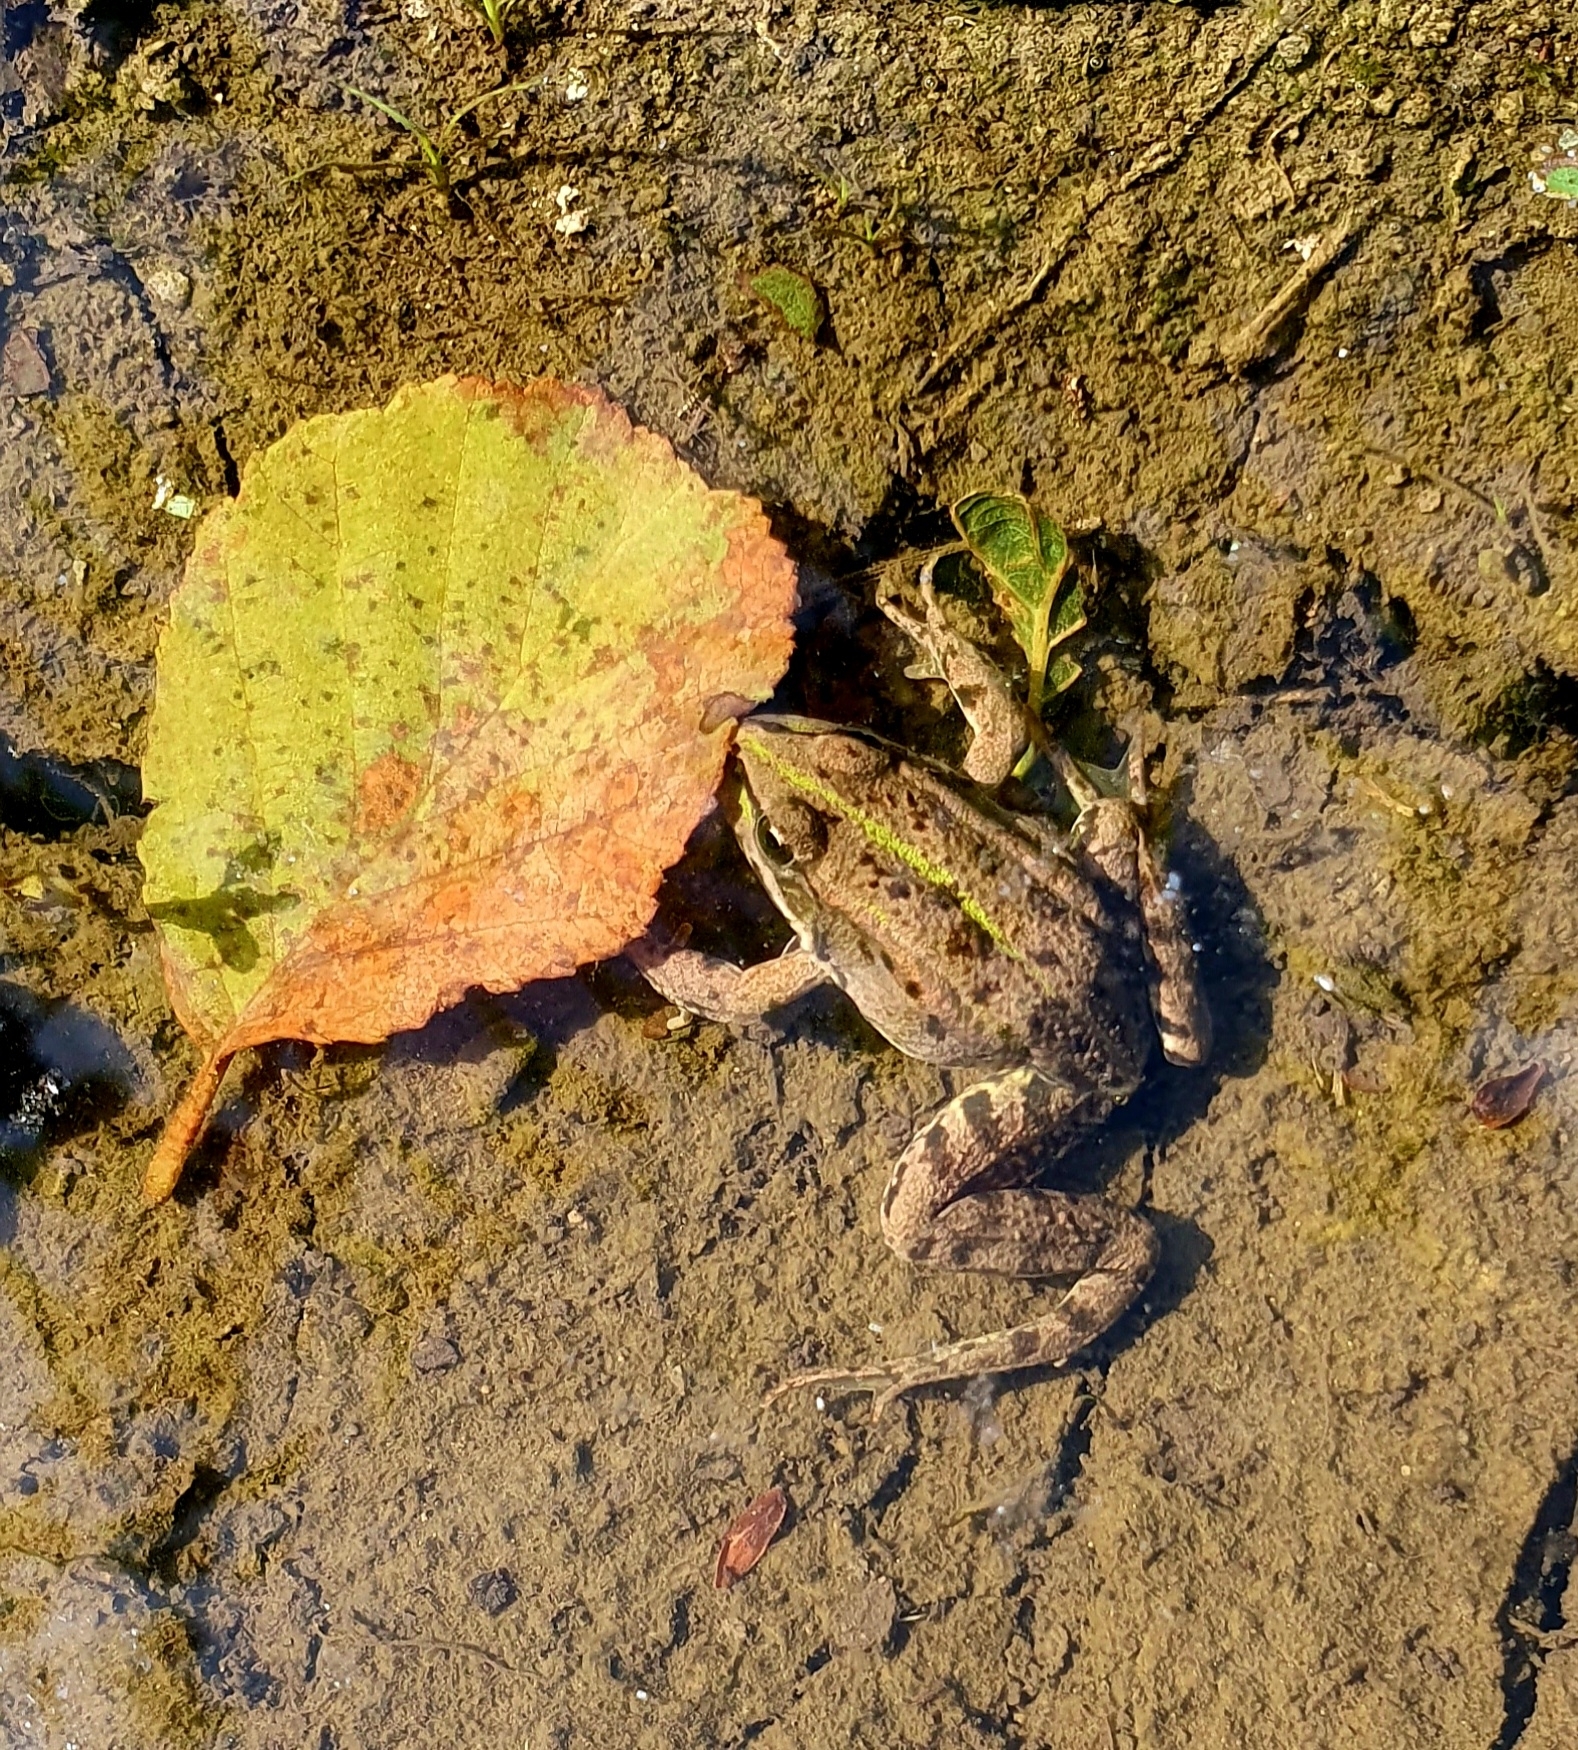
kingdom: Animalia
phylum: Chordata
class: Amphibia
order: Anura
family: Ranidae
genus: Pelophylax
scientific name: Pelophylax ridibundus
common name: Marsh frog
